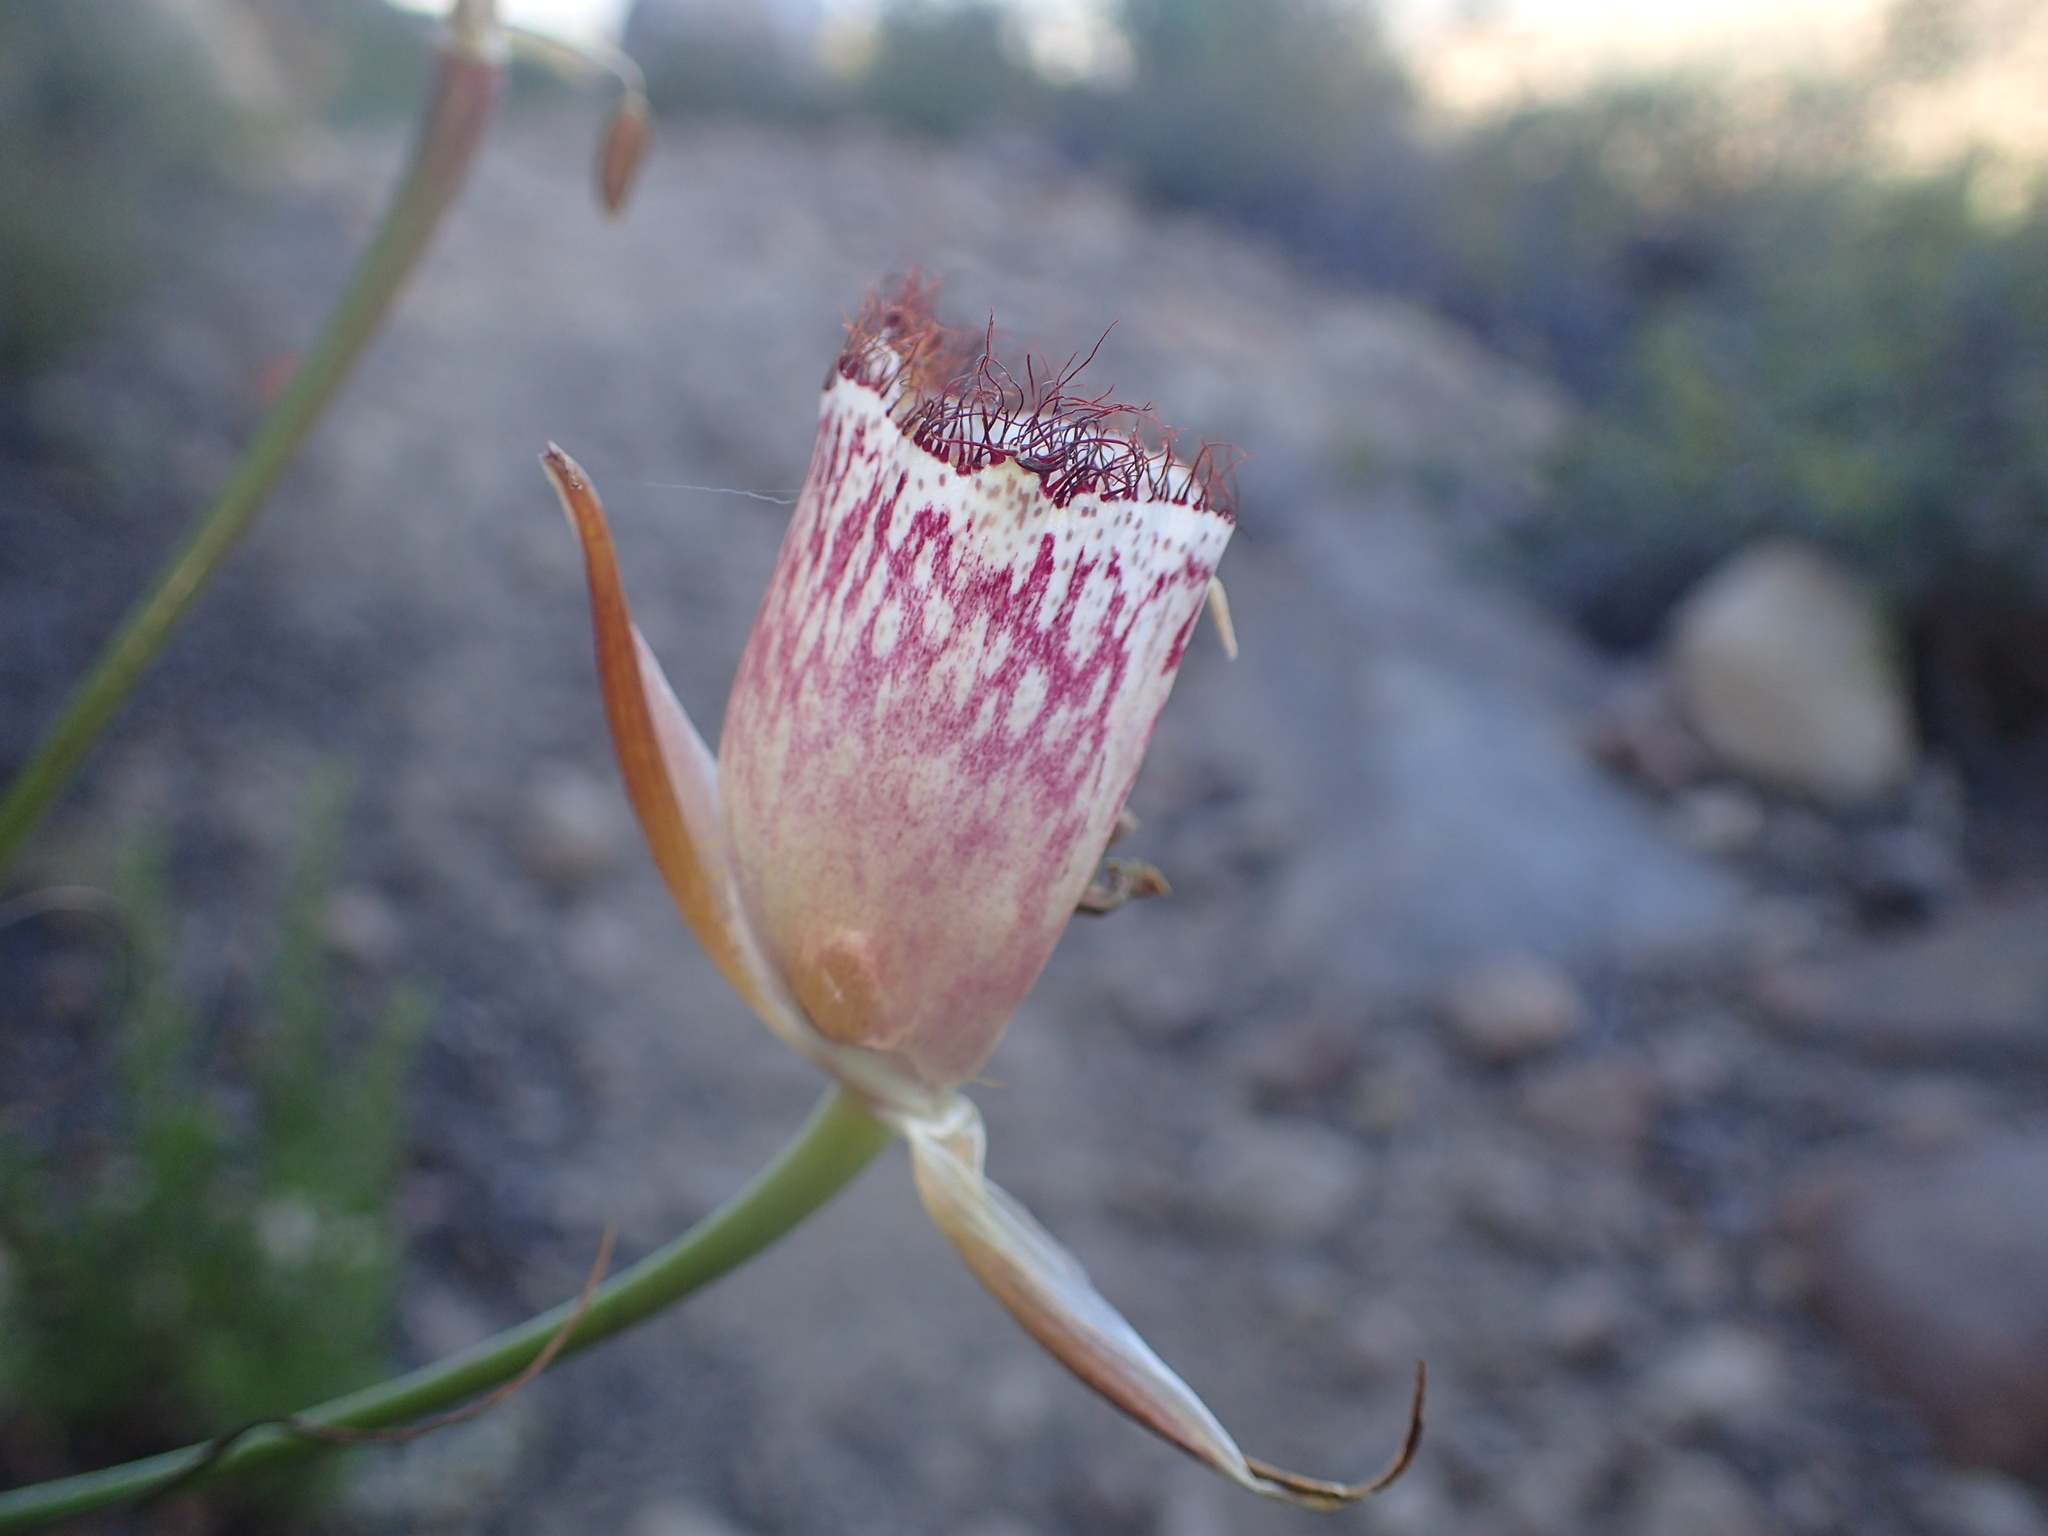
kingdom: Plantae
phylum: Tracheophyta
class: Liliopsida
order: Liliales
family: Liliaceae
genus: Calochortus
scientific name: Calochortus fimbriatus
